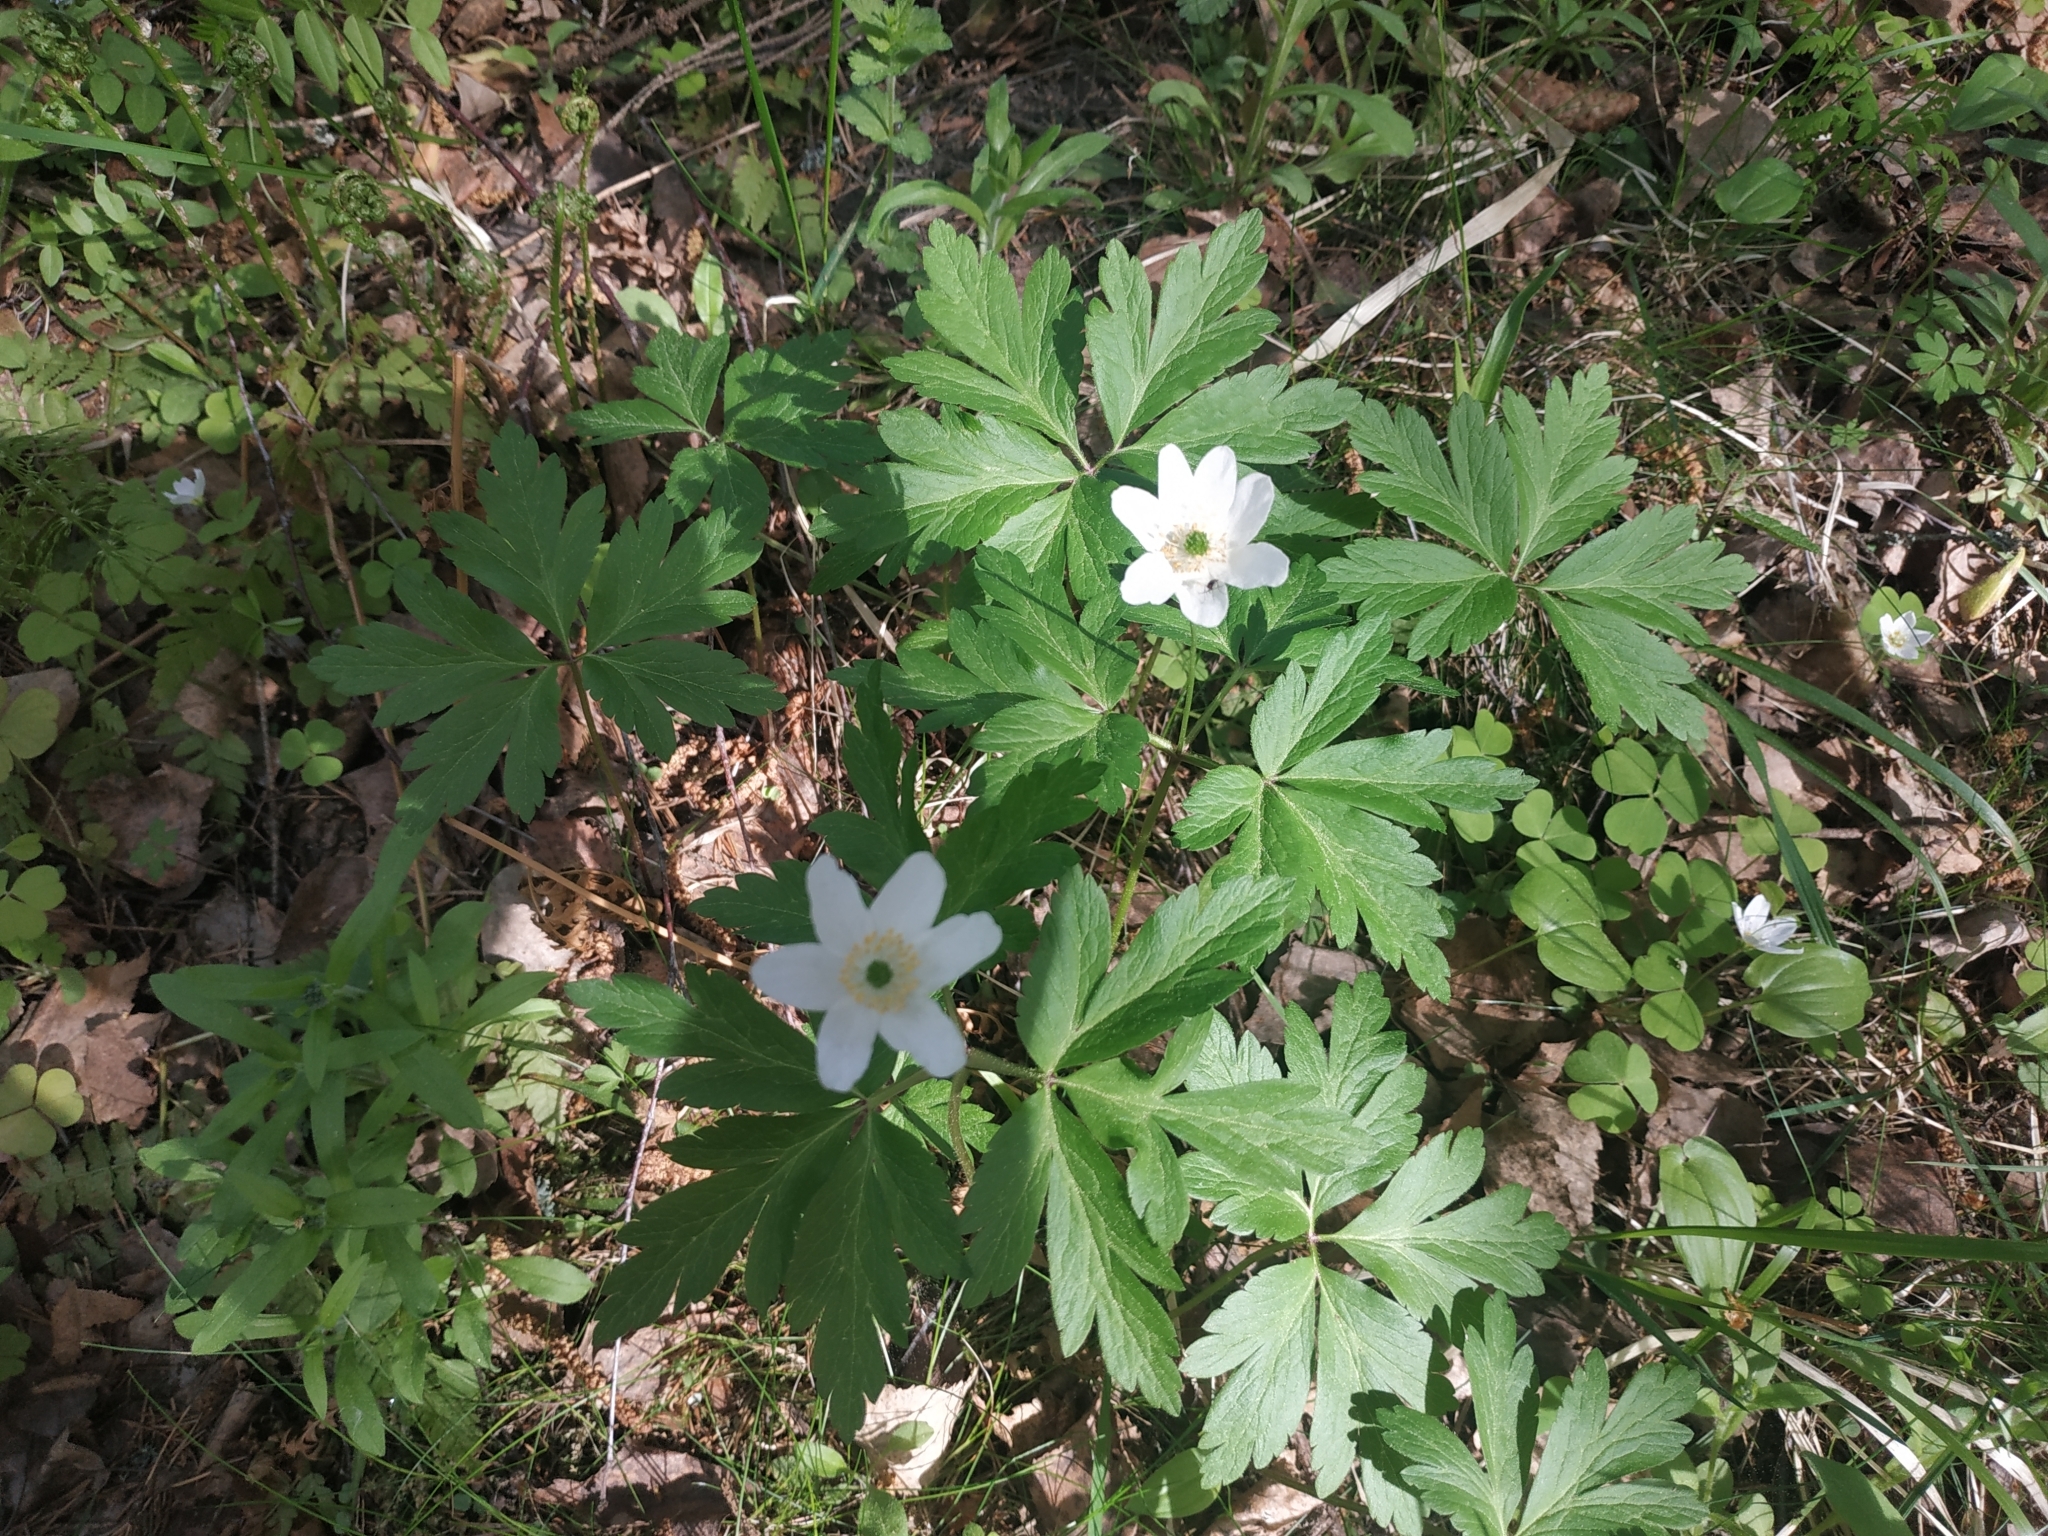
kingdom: Plantae
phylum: Tracheophyta
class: Magnoliopsida
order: Ranunculales
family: Ranunculaceae
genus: Anemone
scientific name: Anemone nemorosa
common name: Wood anemone
